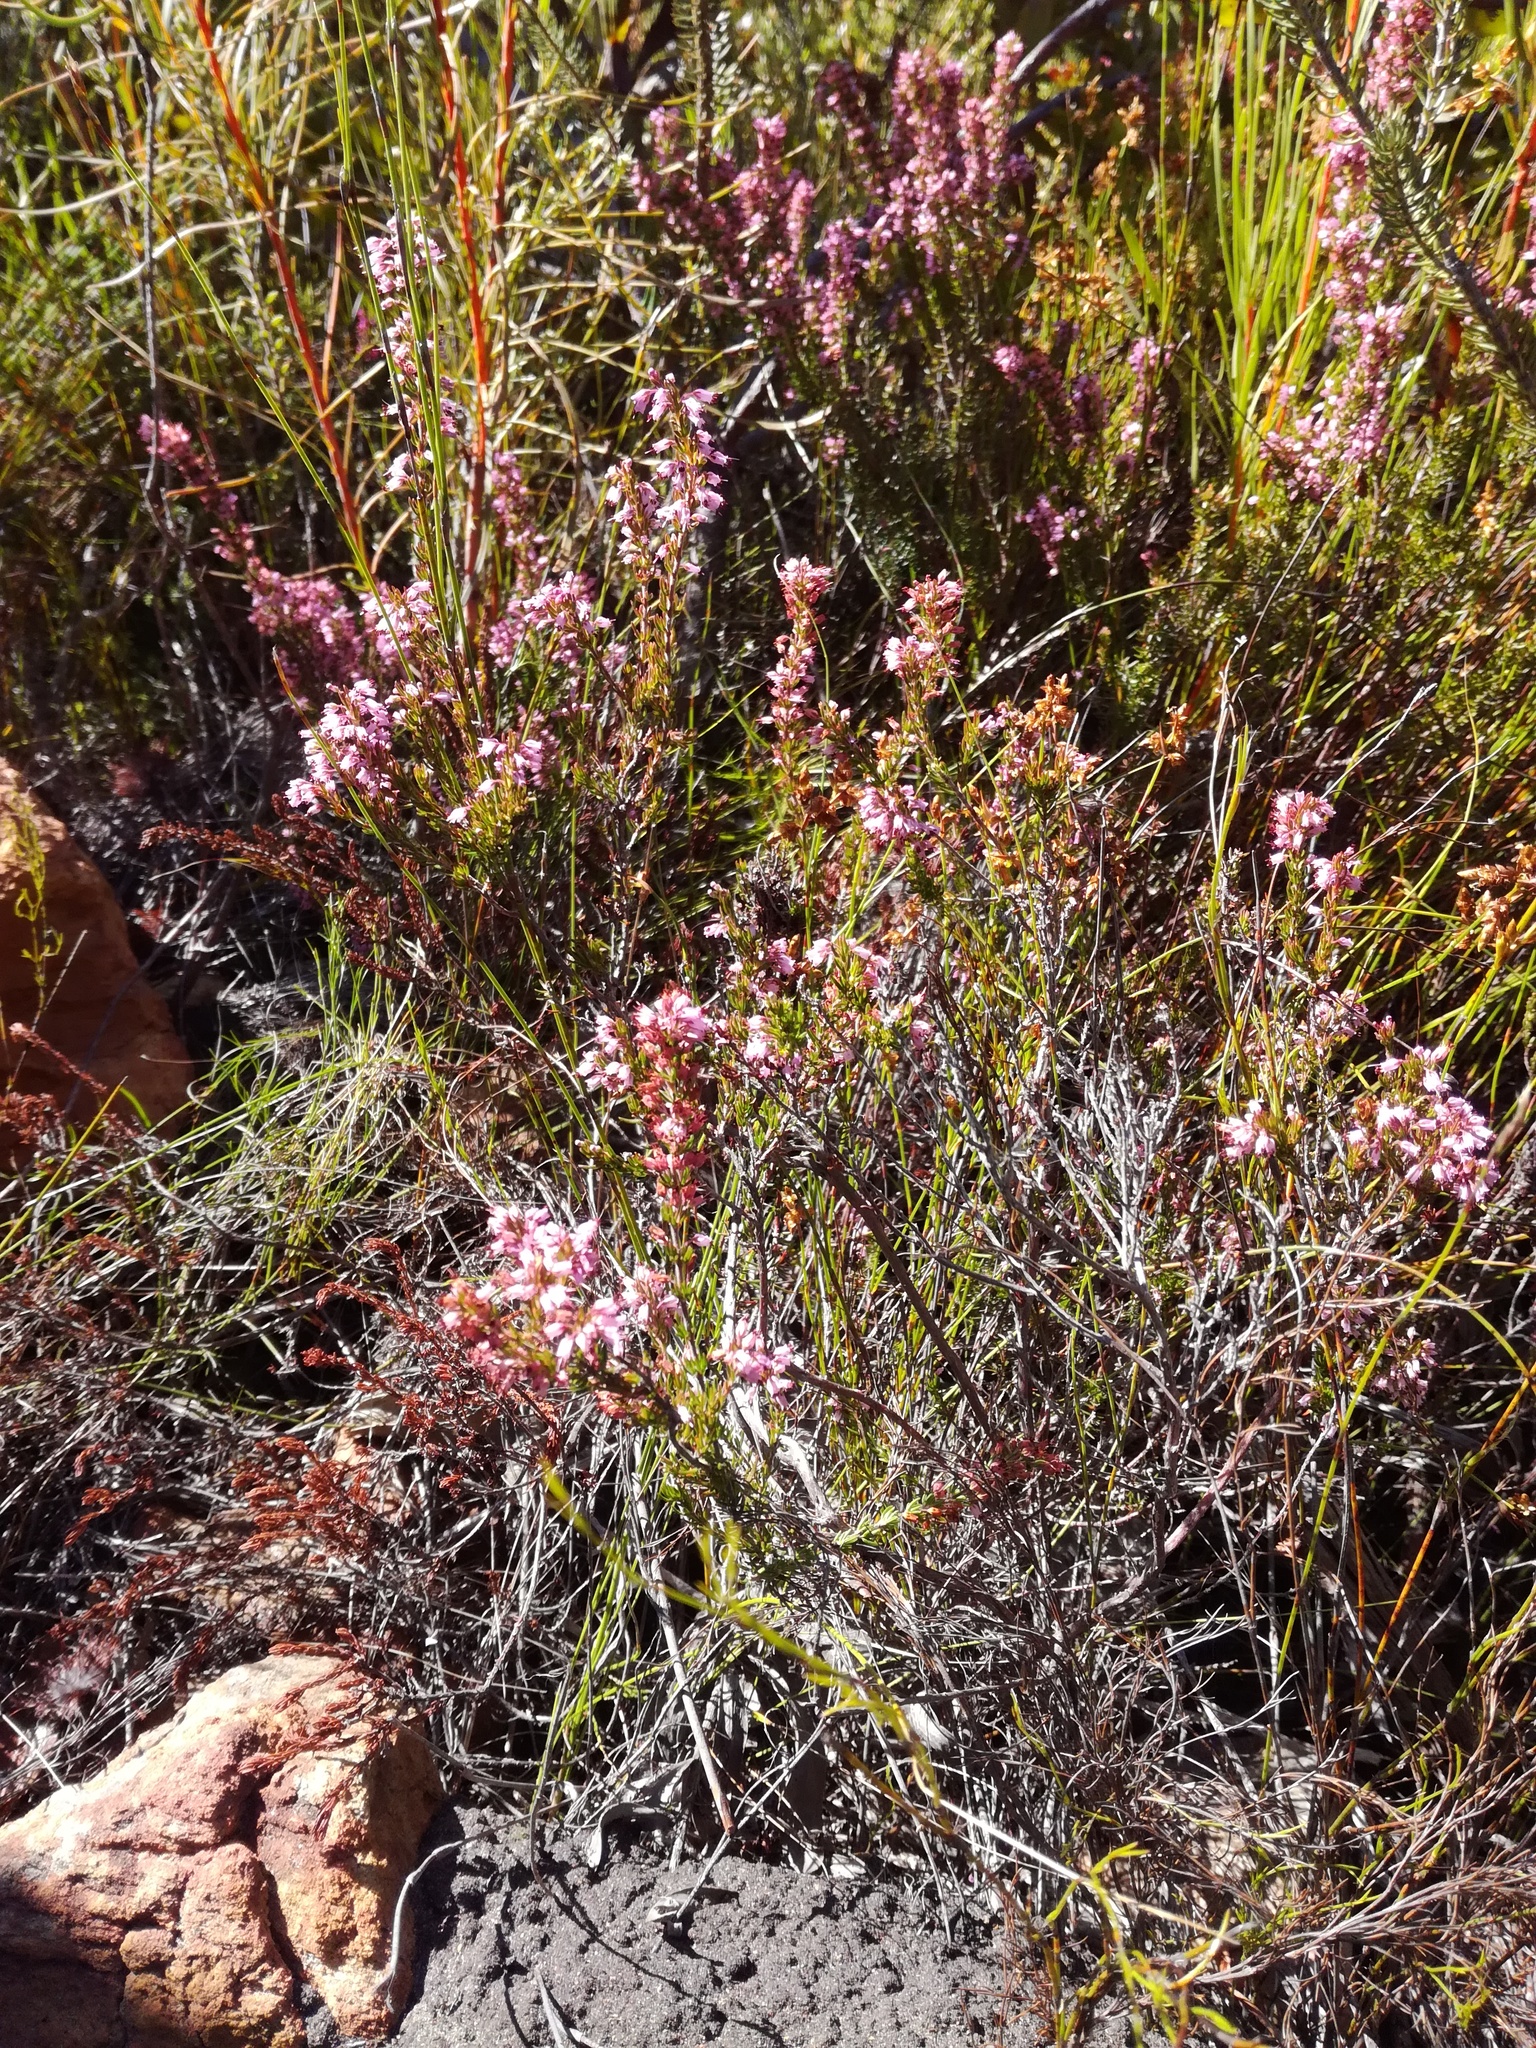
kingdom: Plantae
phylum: Tracheophyta
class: Magnoliopsida
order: Ericales
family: Ericaceae
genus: Erica
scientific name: Erica nudiflora
